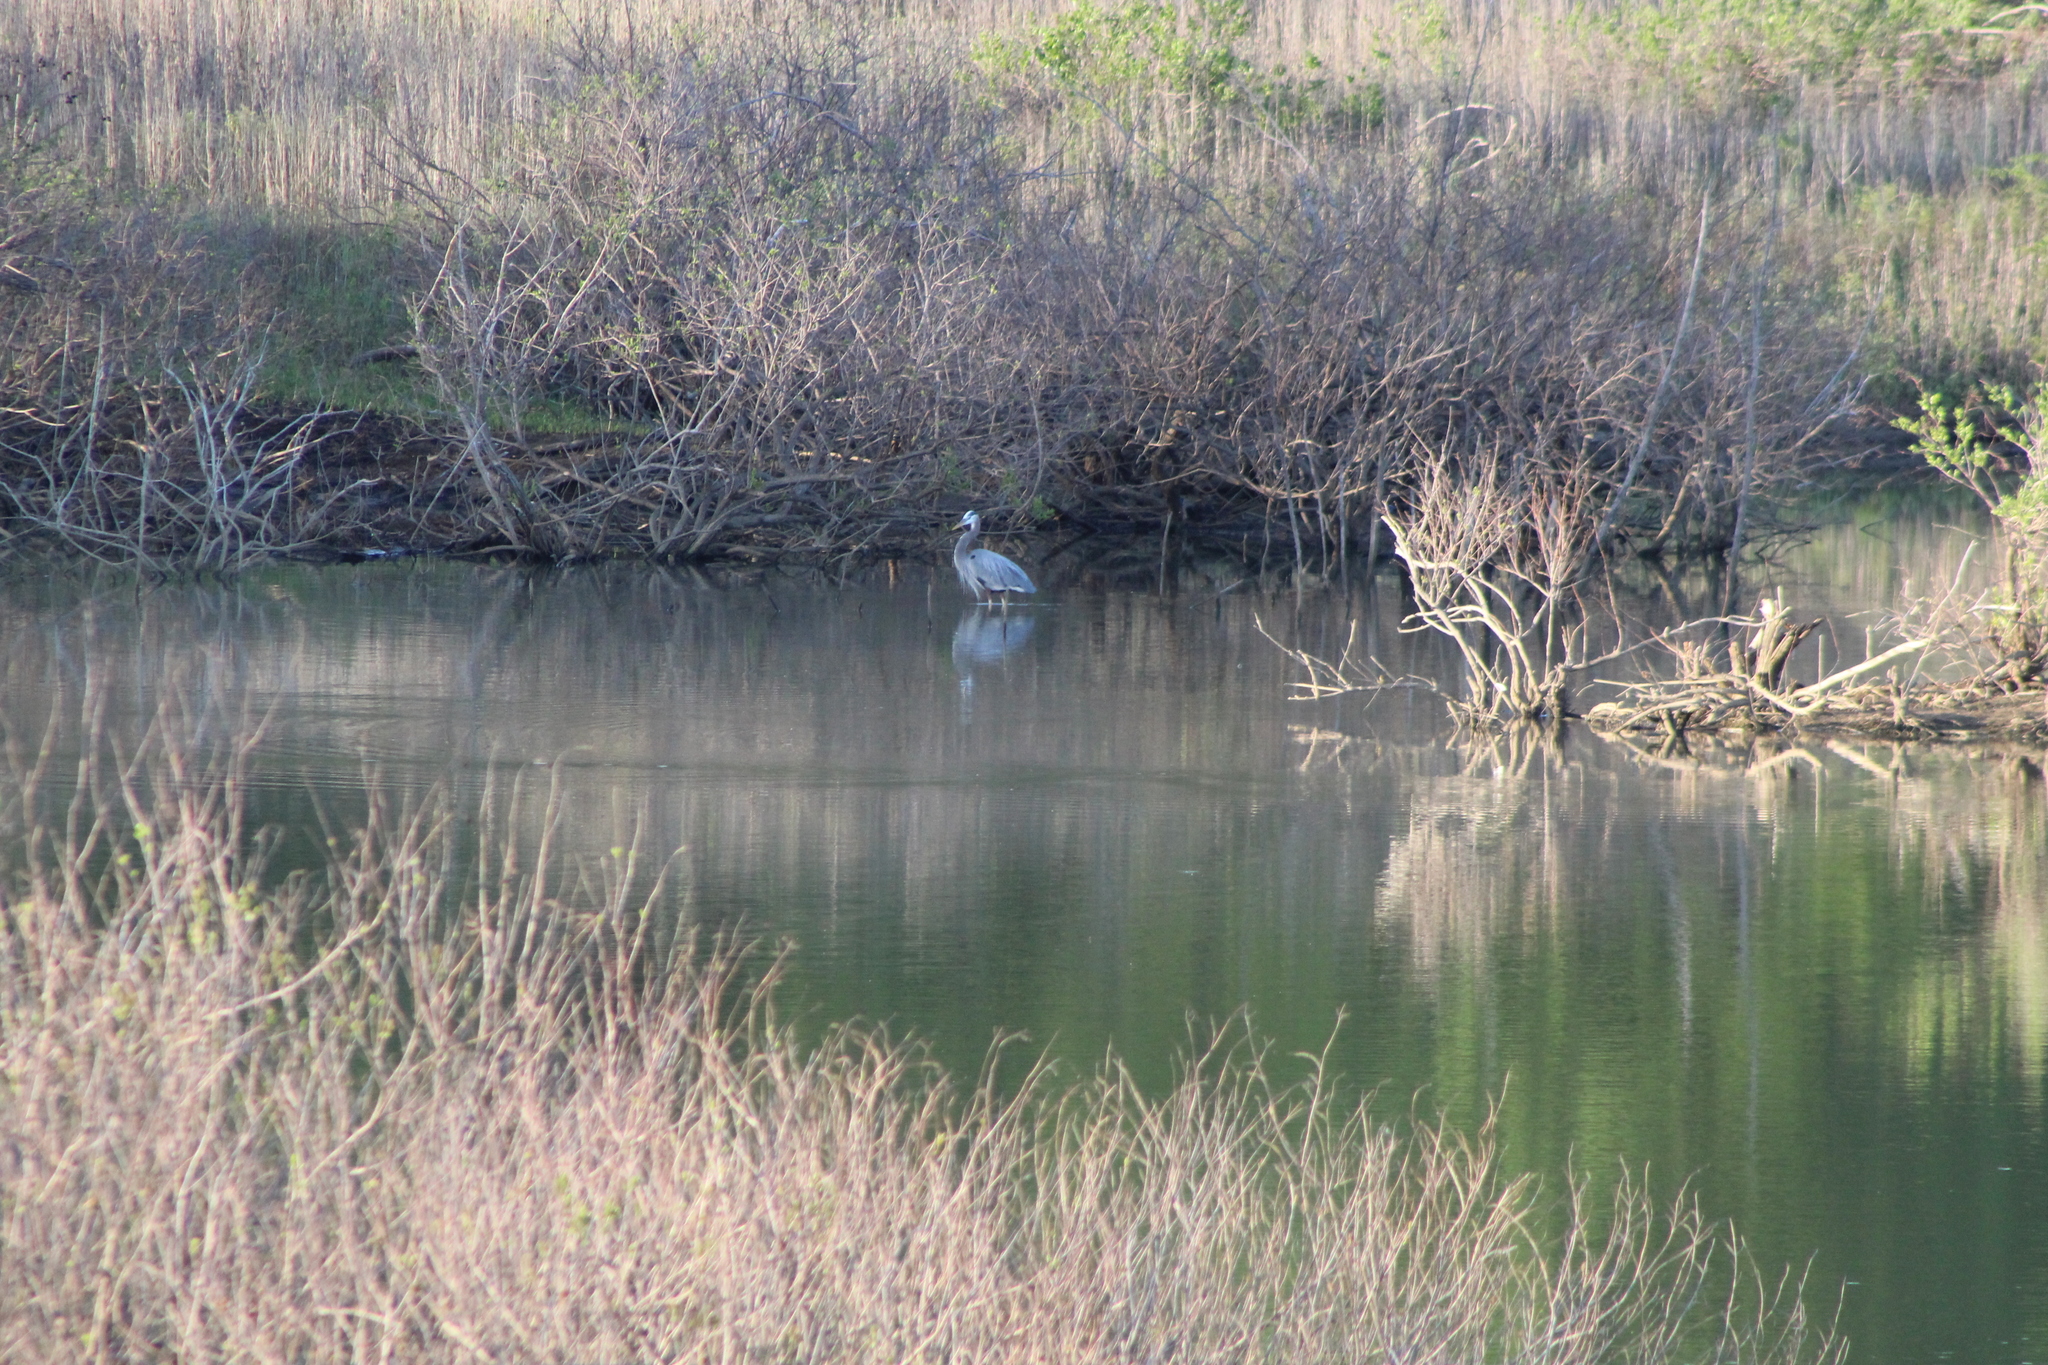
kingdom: Animalia
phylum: Chordata
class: Aves
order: Pelecaniformes
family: Ardeidae
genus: Ardea
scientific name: Ardea herodias
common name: Great blue heron
